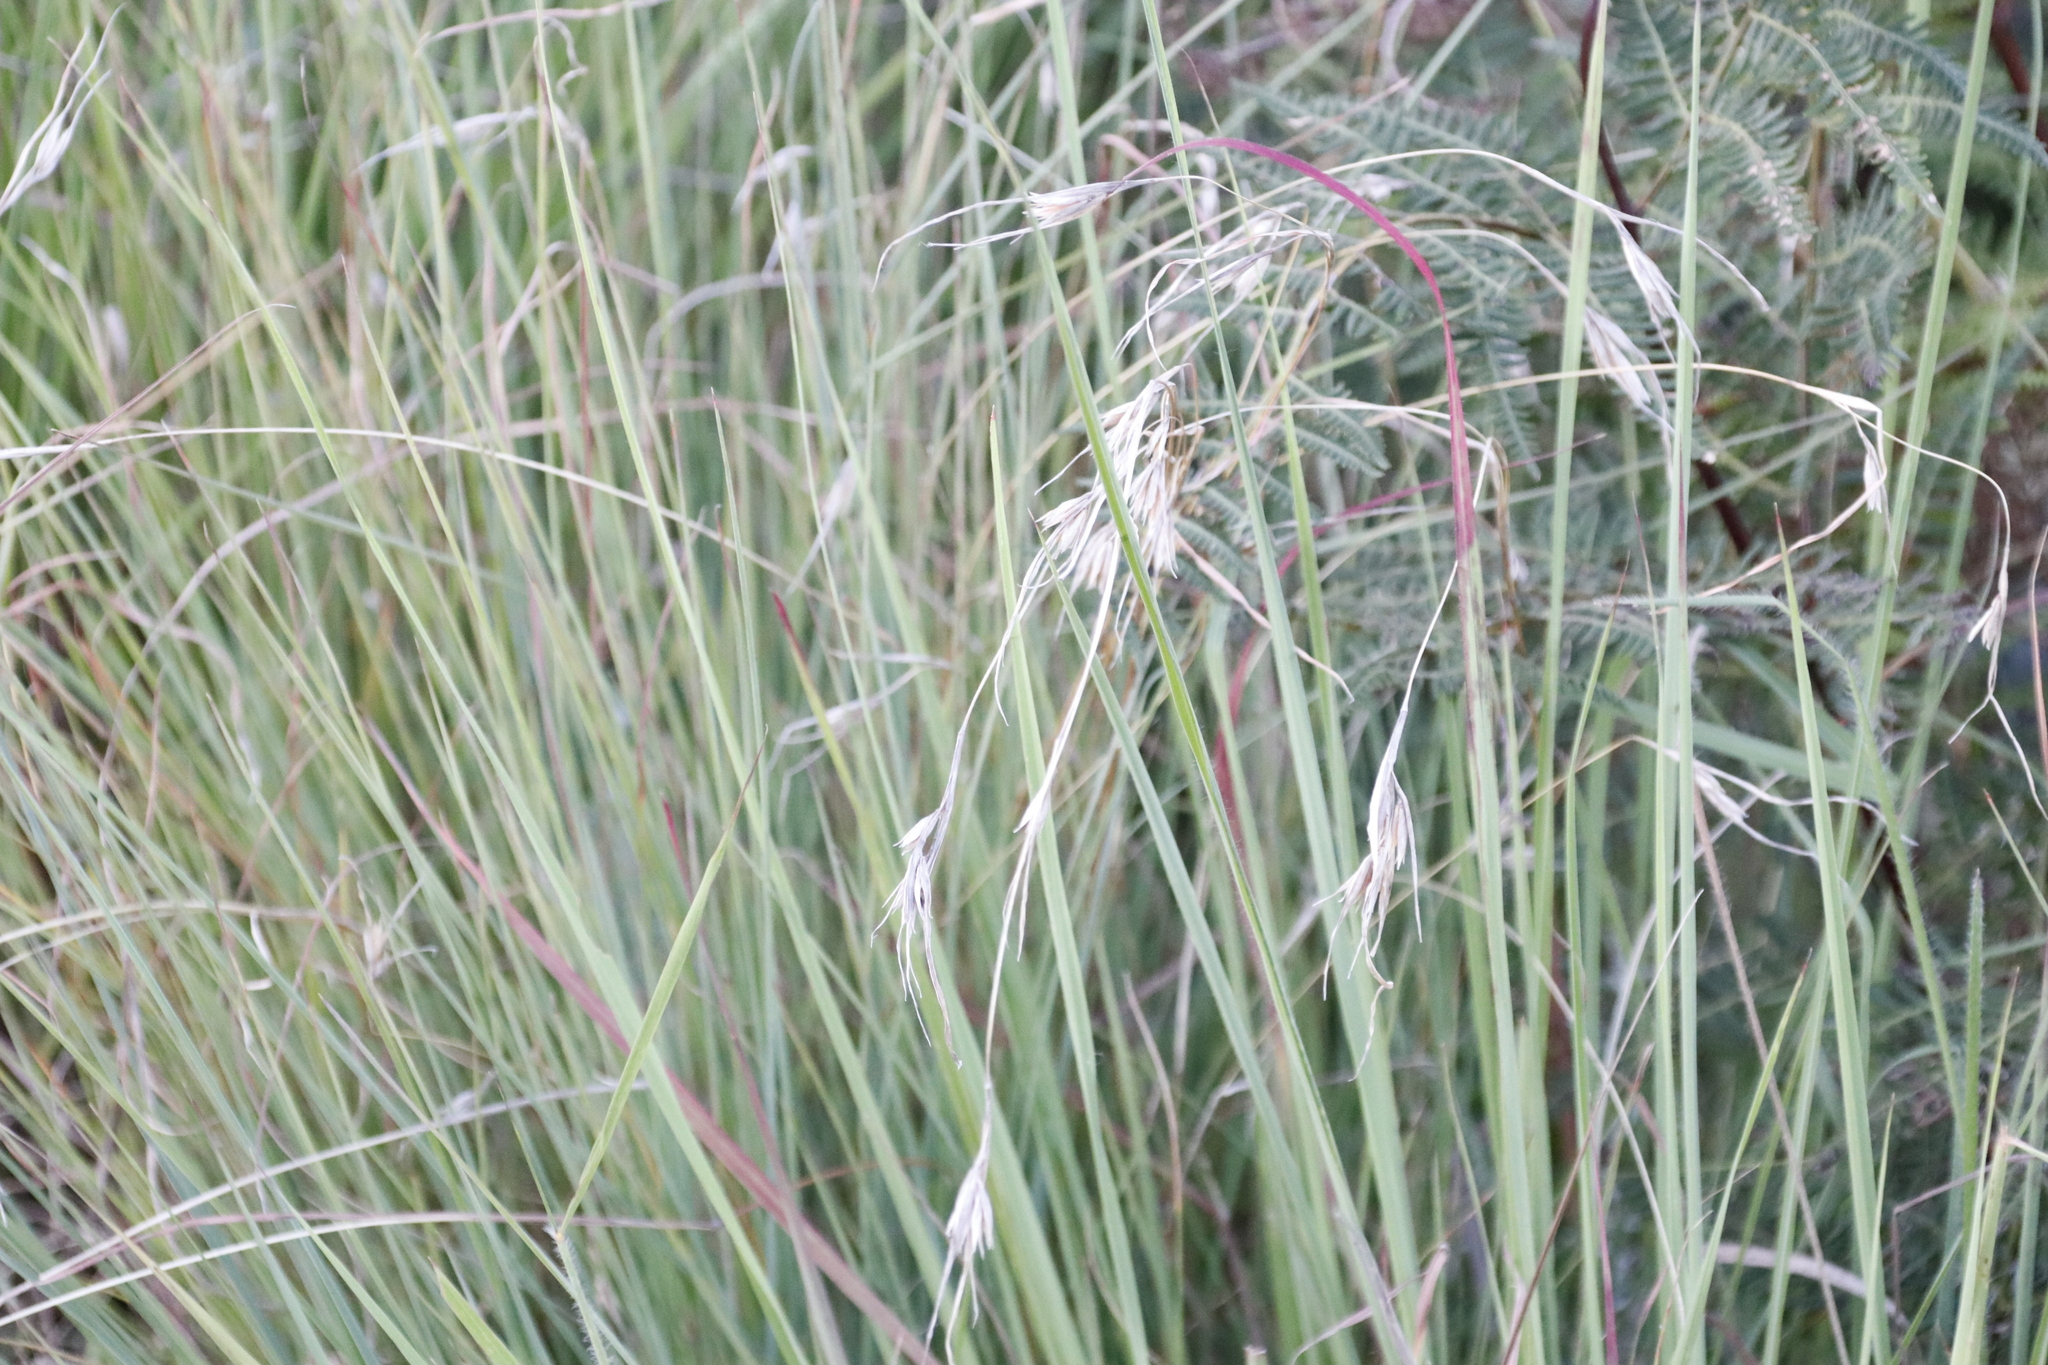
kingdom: Plantae
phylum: Tracheophyta
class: Liliopsida
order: Poales
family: Poaceae
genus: Themeda
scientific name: Themeda triandra
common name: Kangaroo grass
